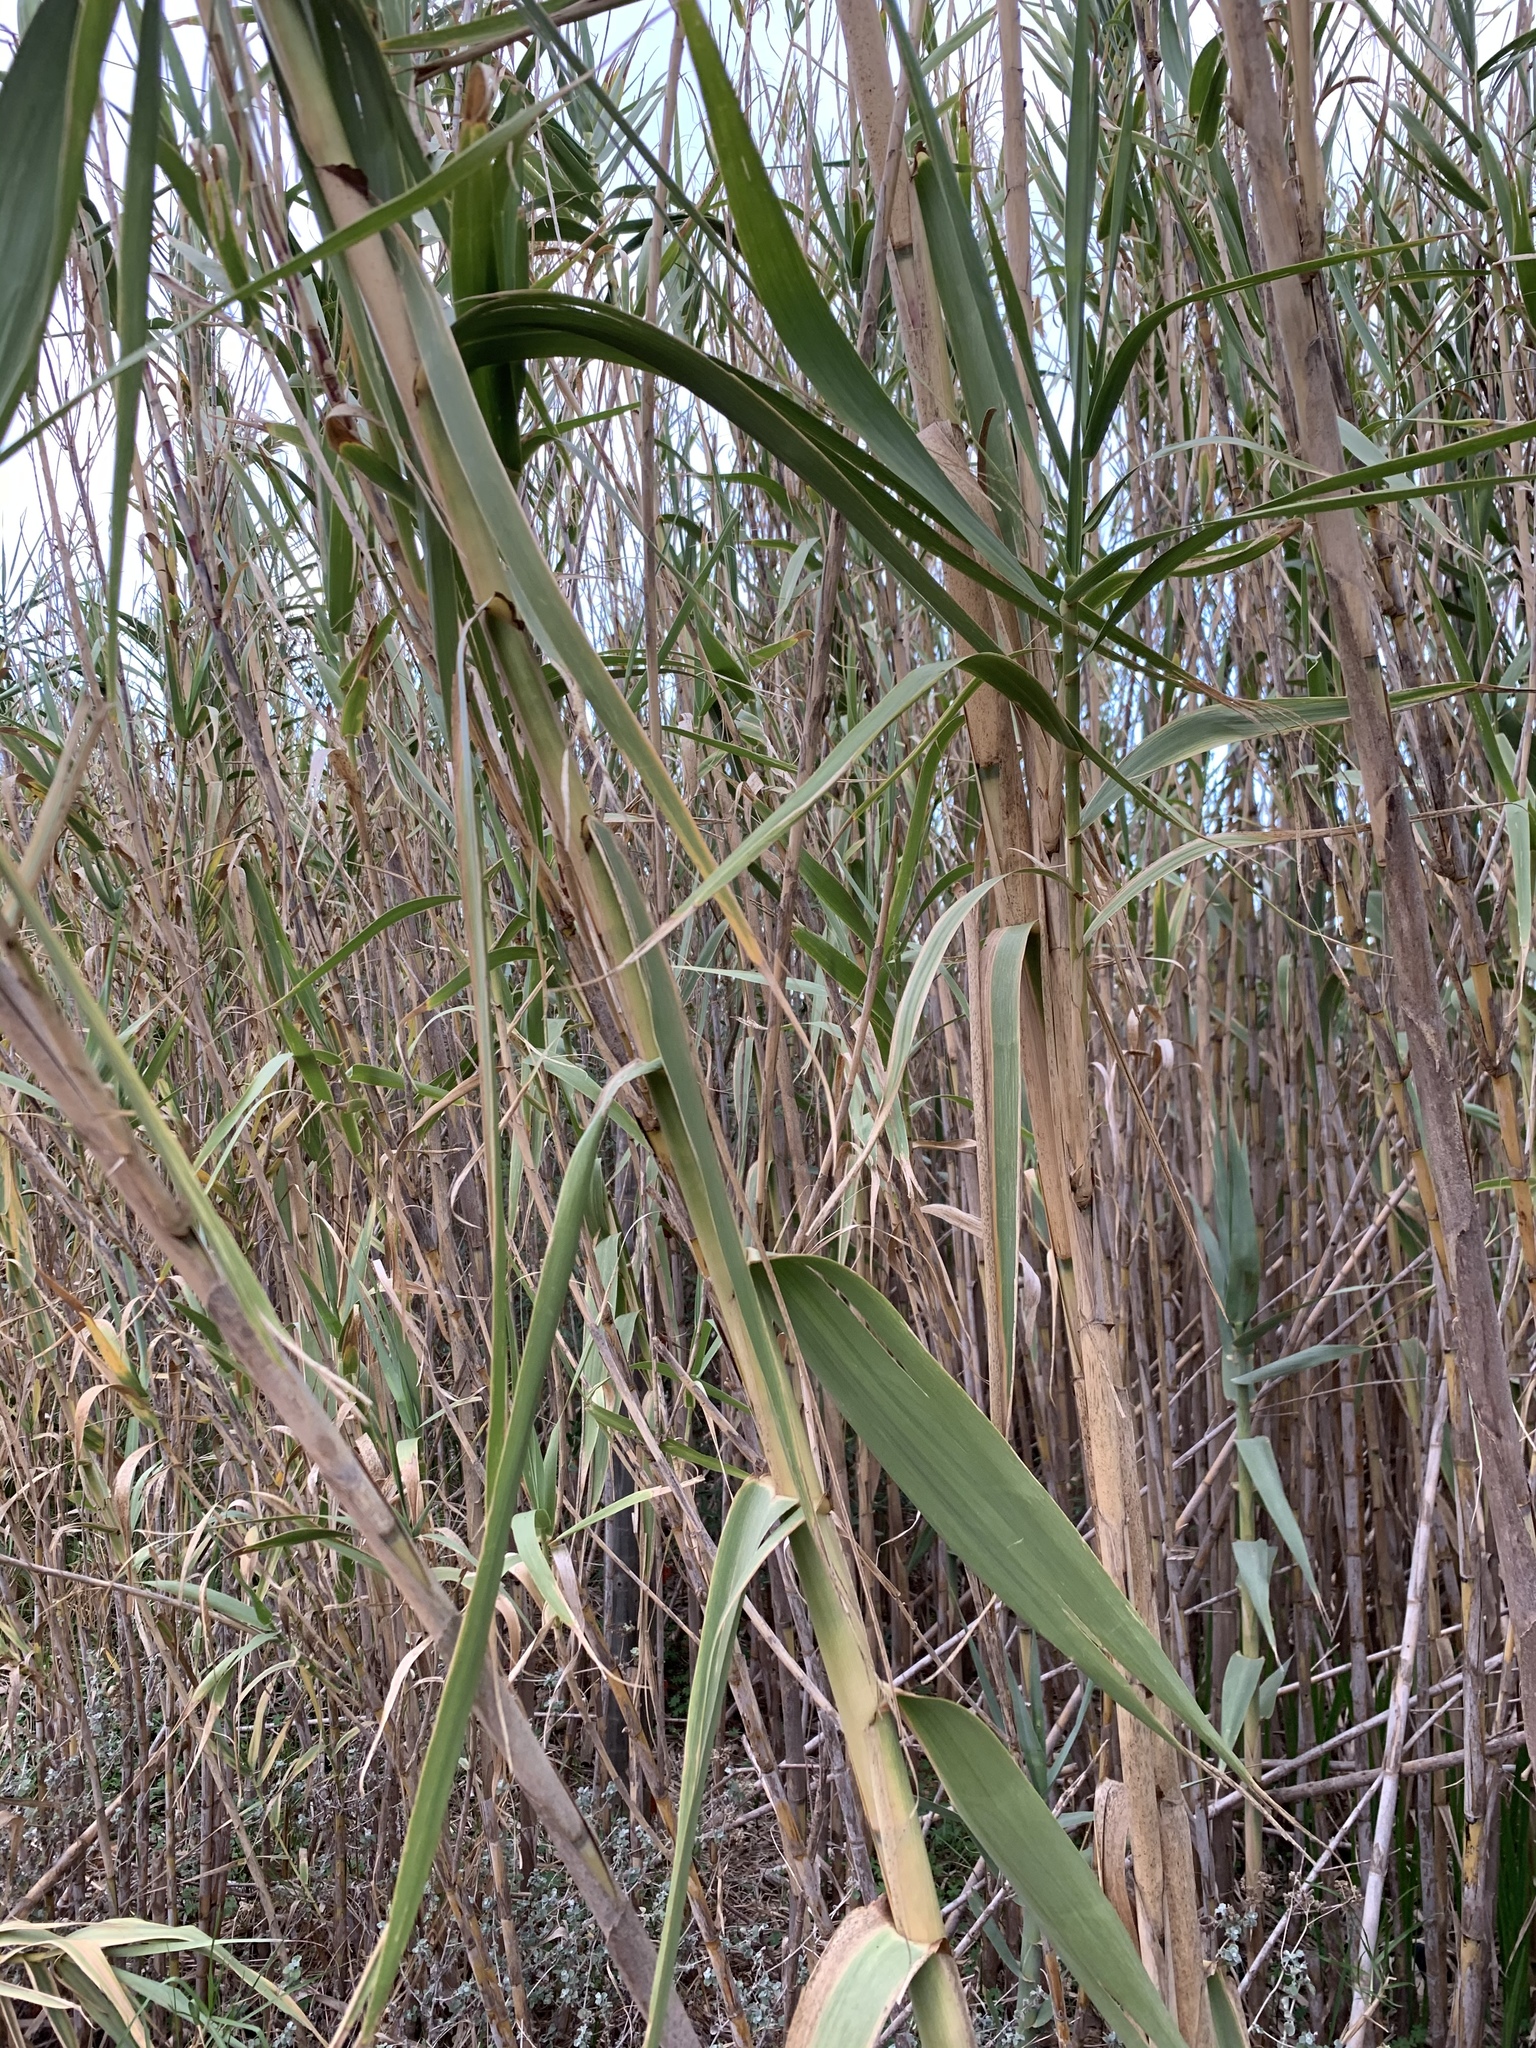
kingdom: Plantae
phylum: Tracheophyta
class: Liliopsida
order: Poales
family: Poaceae
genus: Arundo
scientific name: Arundo donax
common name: Giant reed
